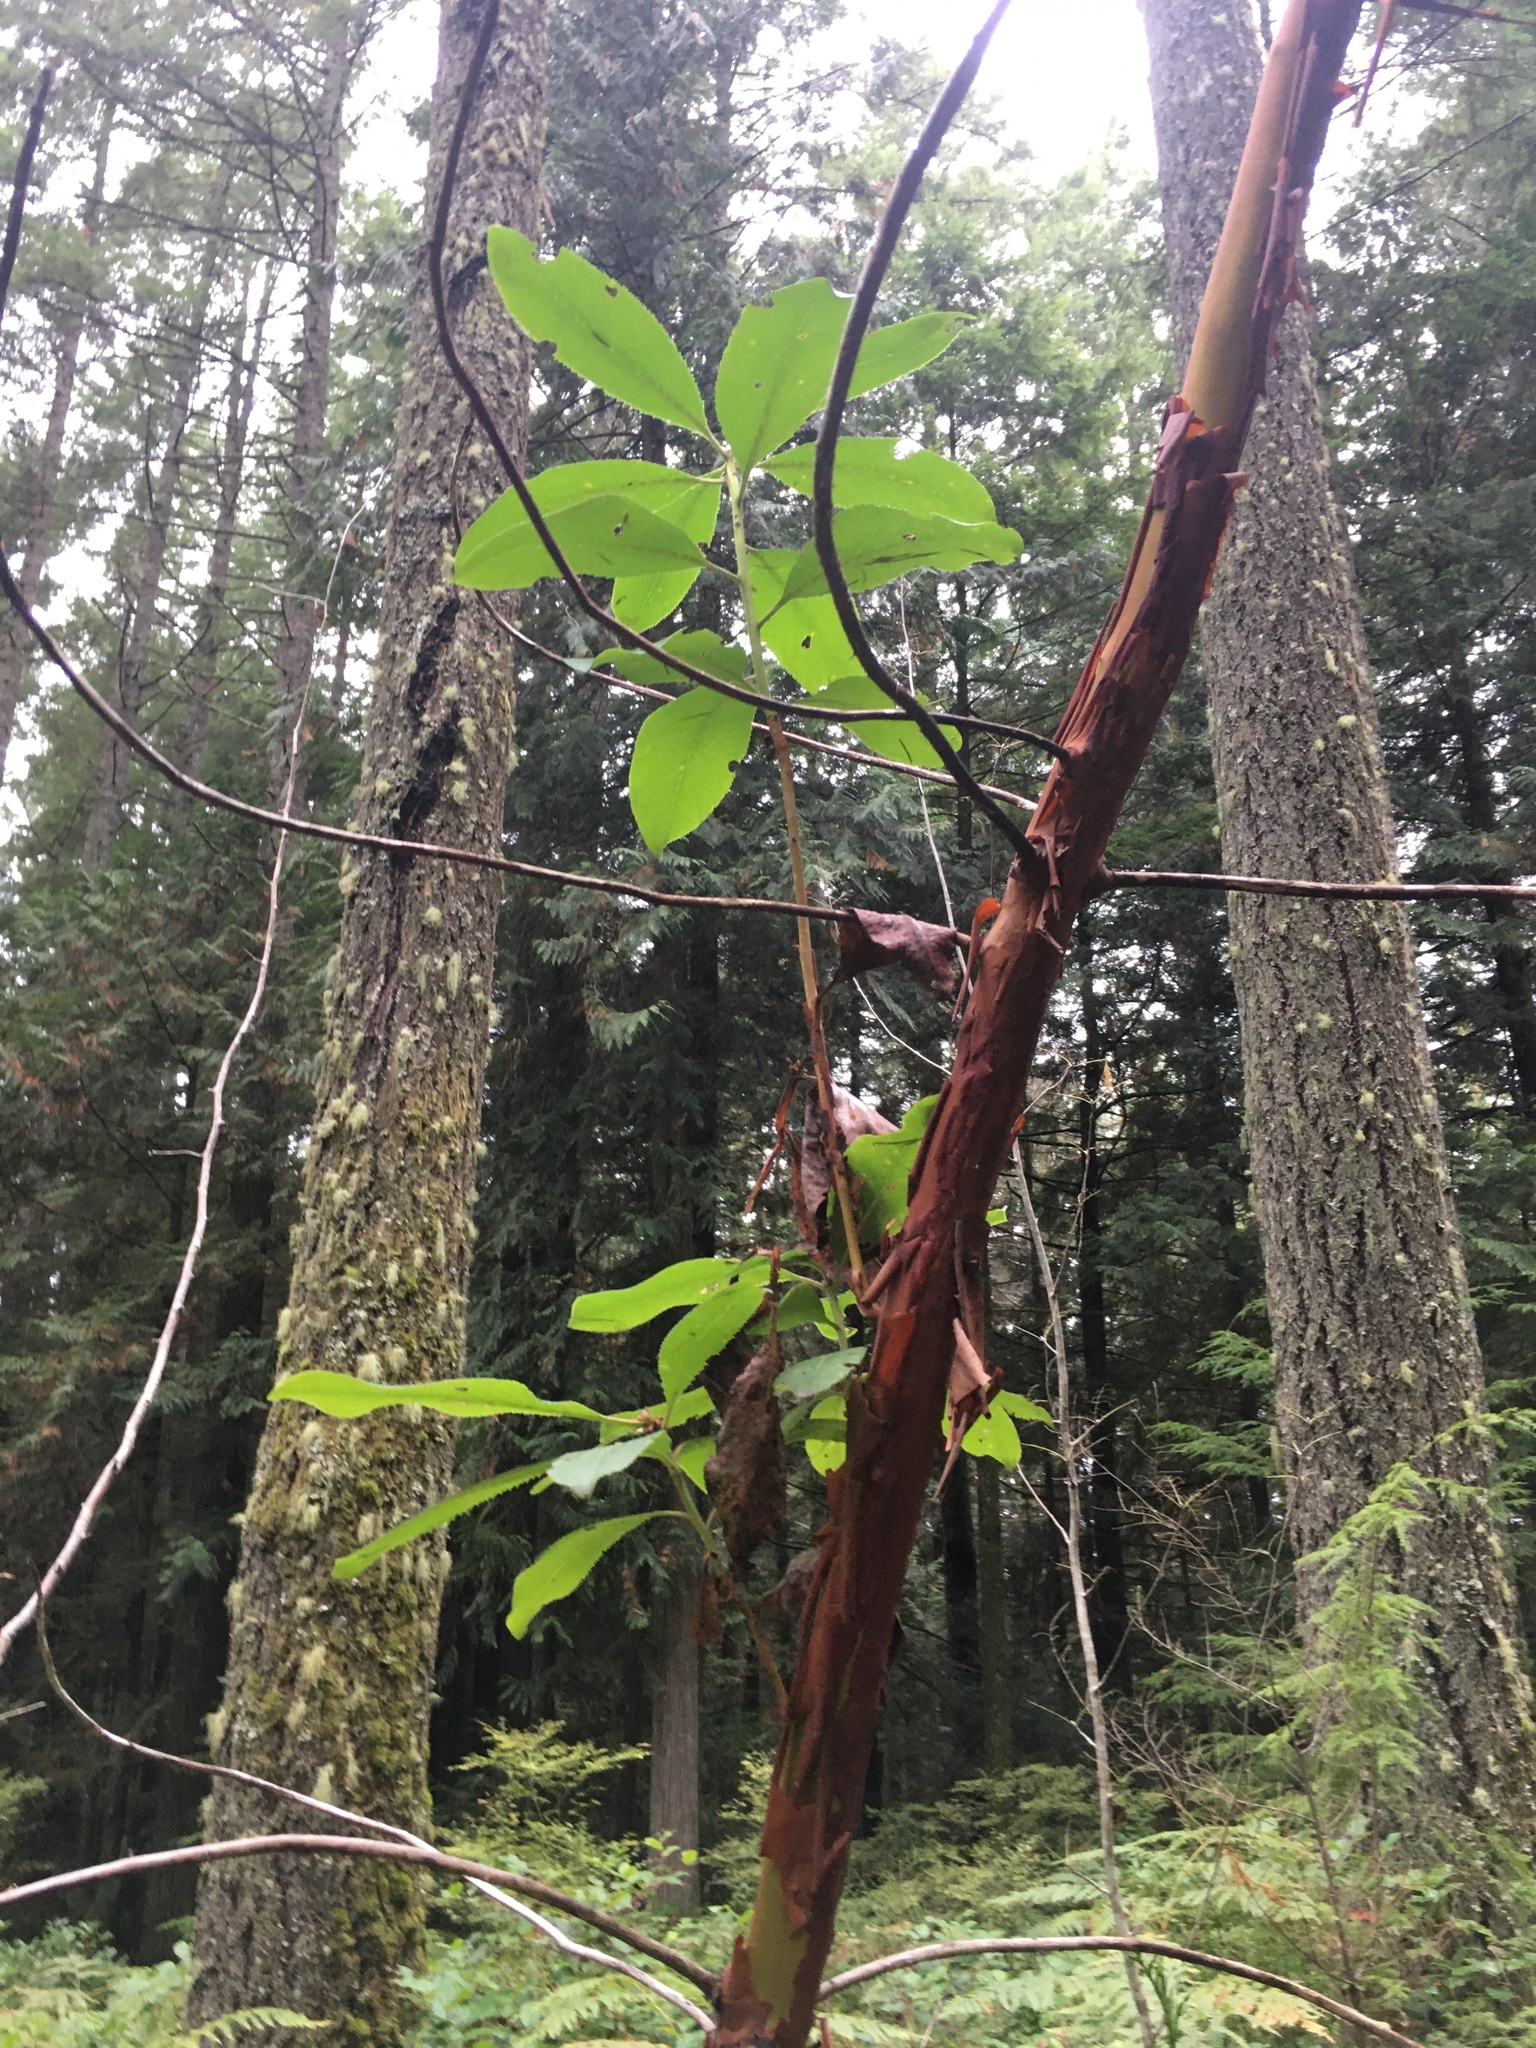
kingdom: Plantae
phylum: Tracheophyta
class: Magnoliopsida
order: Ericales
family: Ericaceae
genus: Arbutus
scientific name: Arbutus menziesii
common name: Pacific madrone
